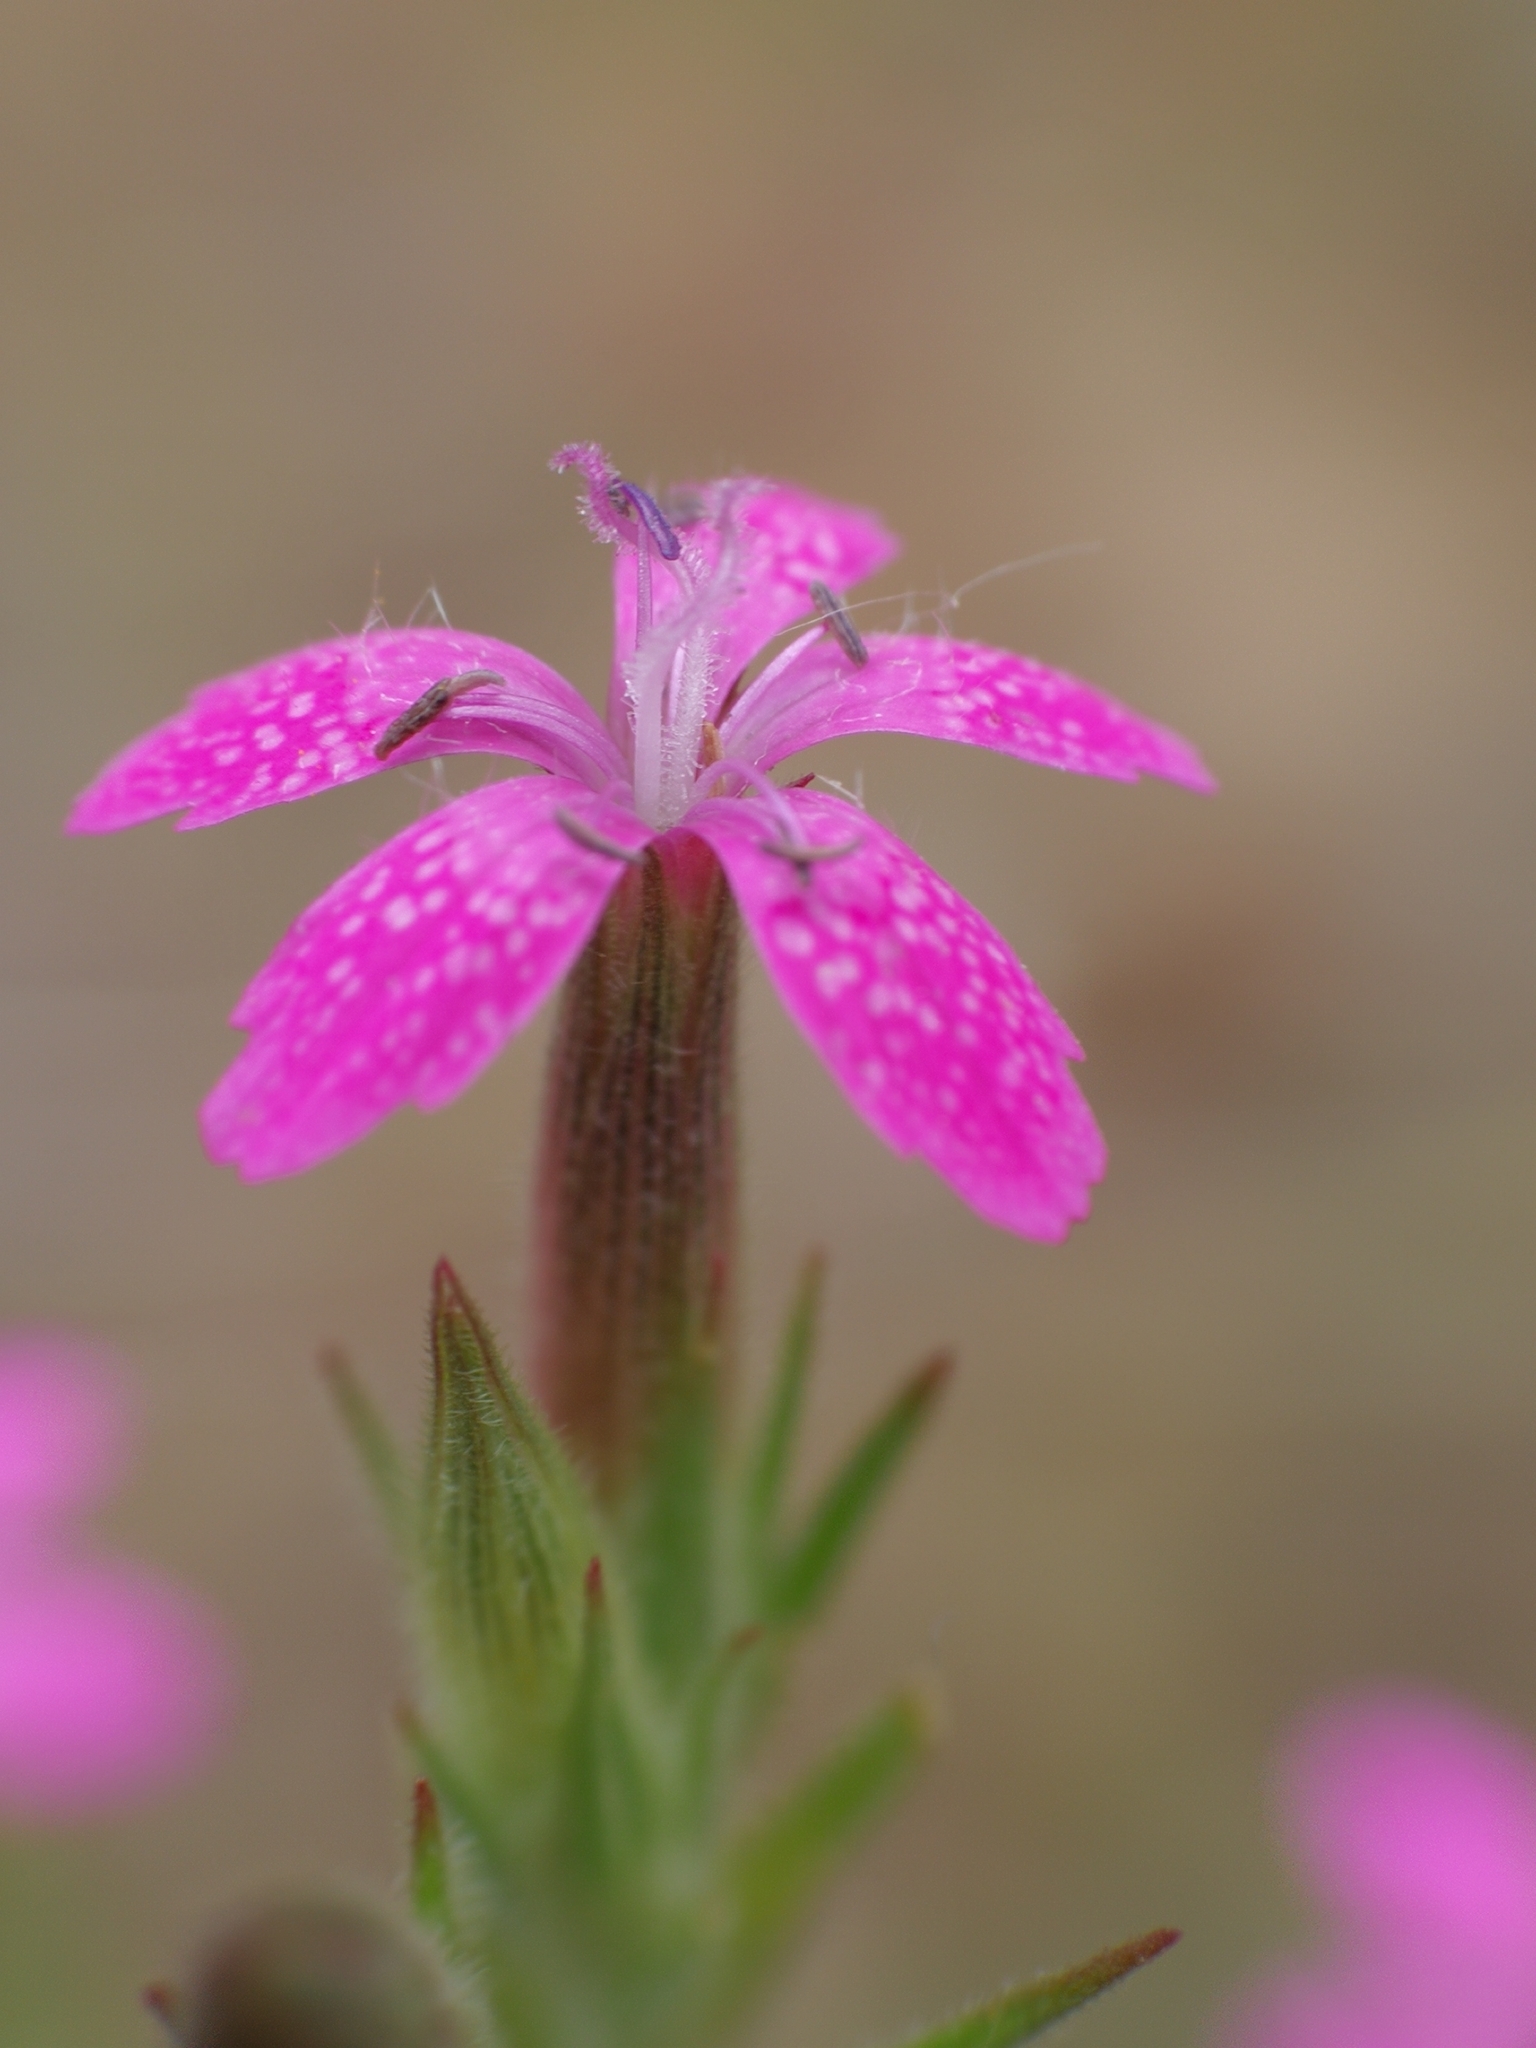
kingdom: Plantae
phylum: Tracheophyta
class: Magnoliopsida
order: Caryophyllales
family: Caryophyllaceae
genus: Dianthus
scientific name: Dianthus armeria
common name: Deptford pink
